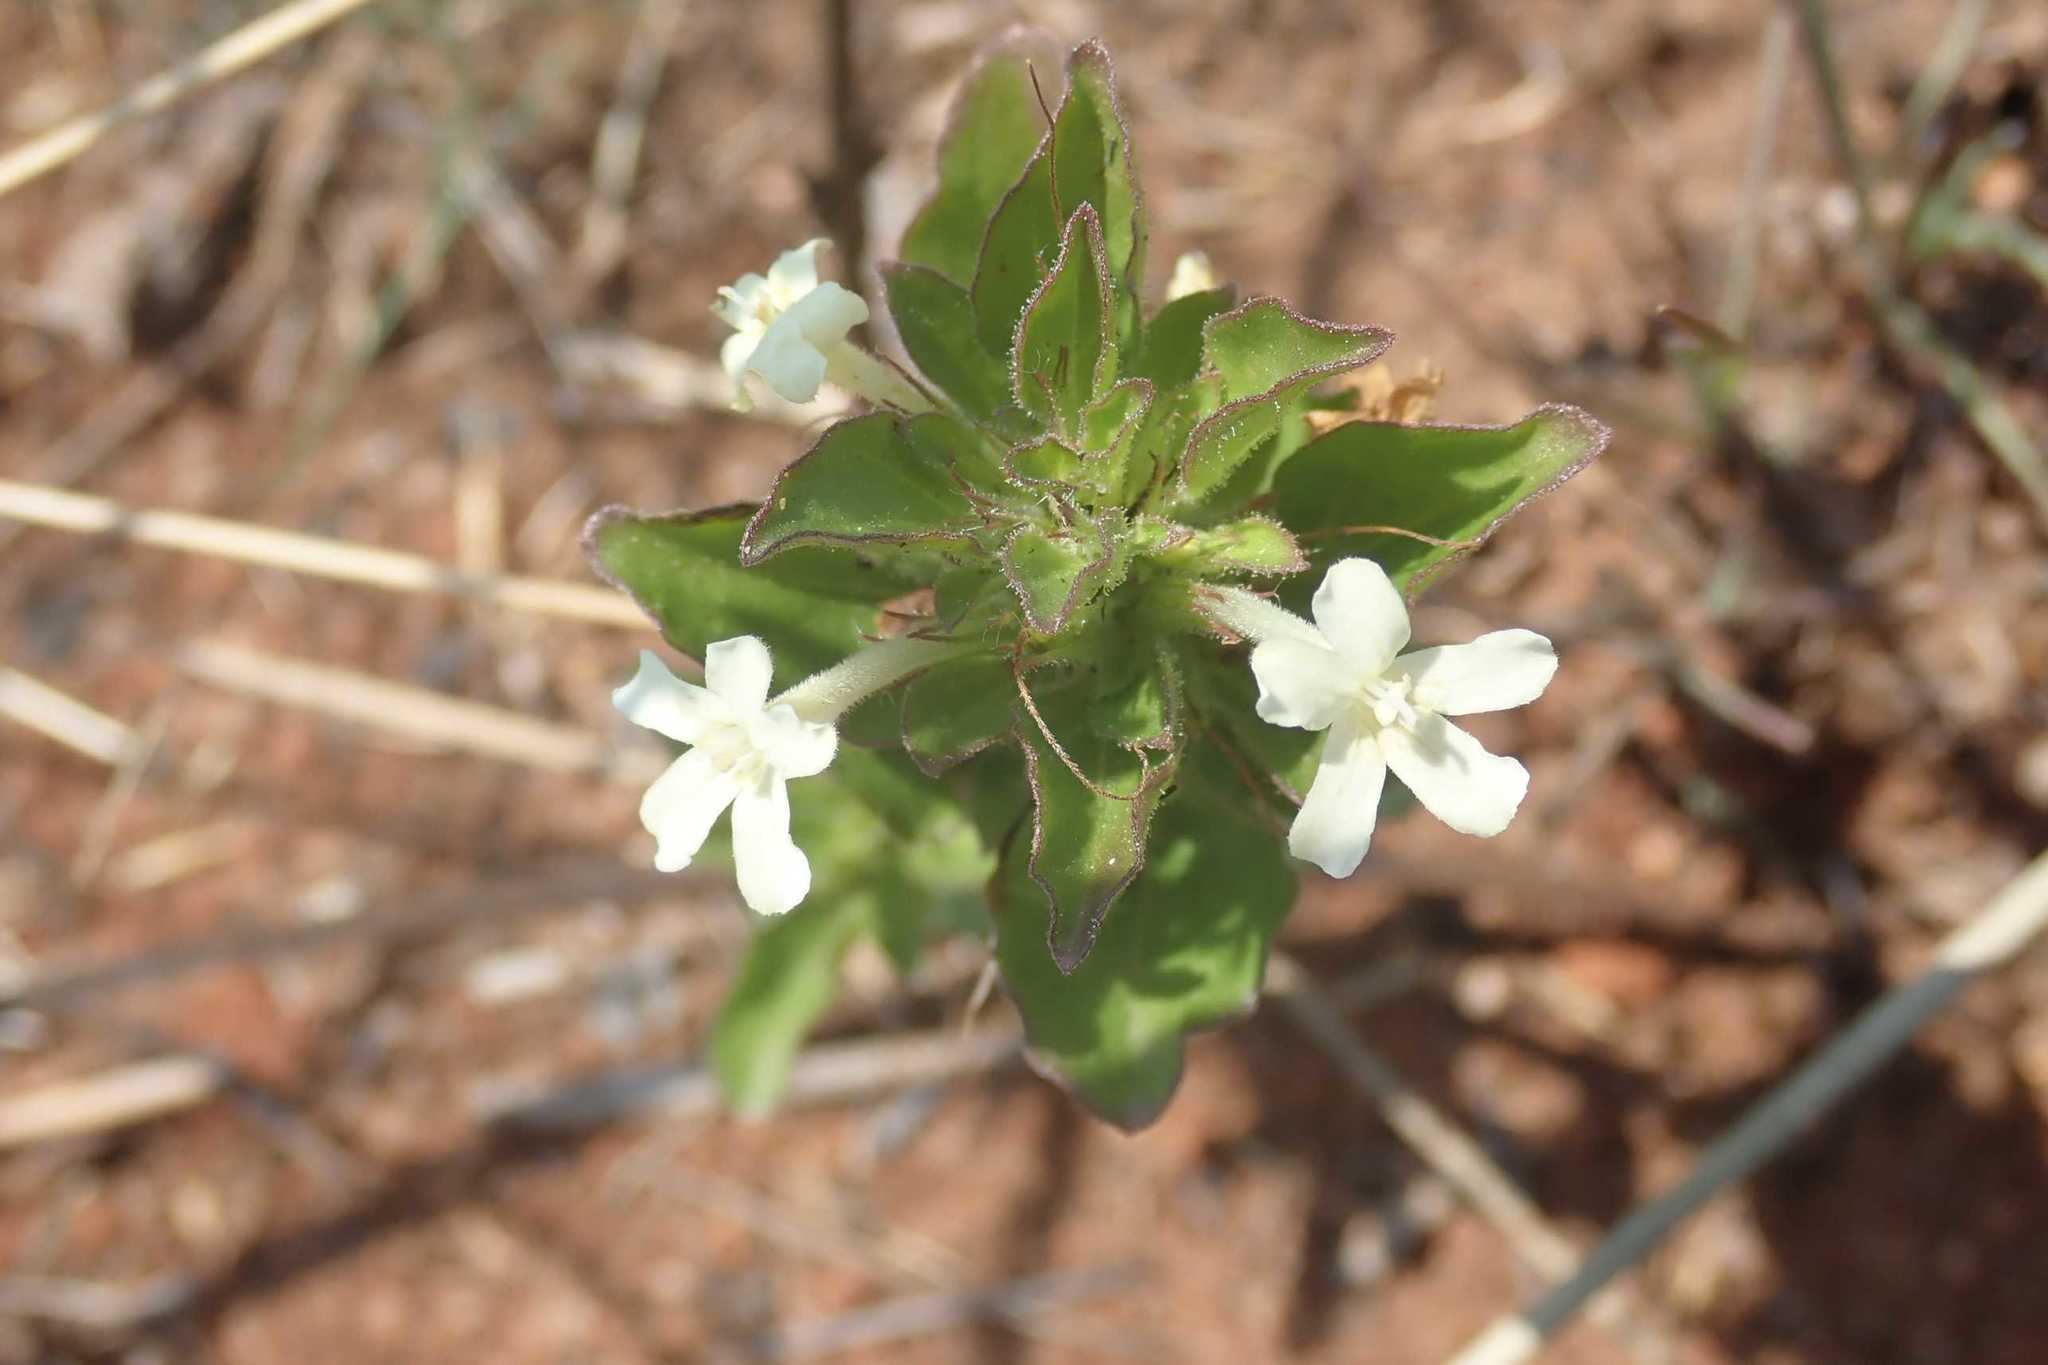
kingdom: Plantae
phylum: Tracheophyta
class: Magnoliopsida
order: Lamiales
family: Acanthaceae
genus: Dyschoriste
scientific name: Dyschoriste setigera
